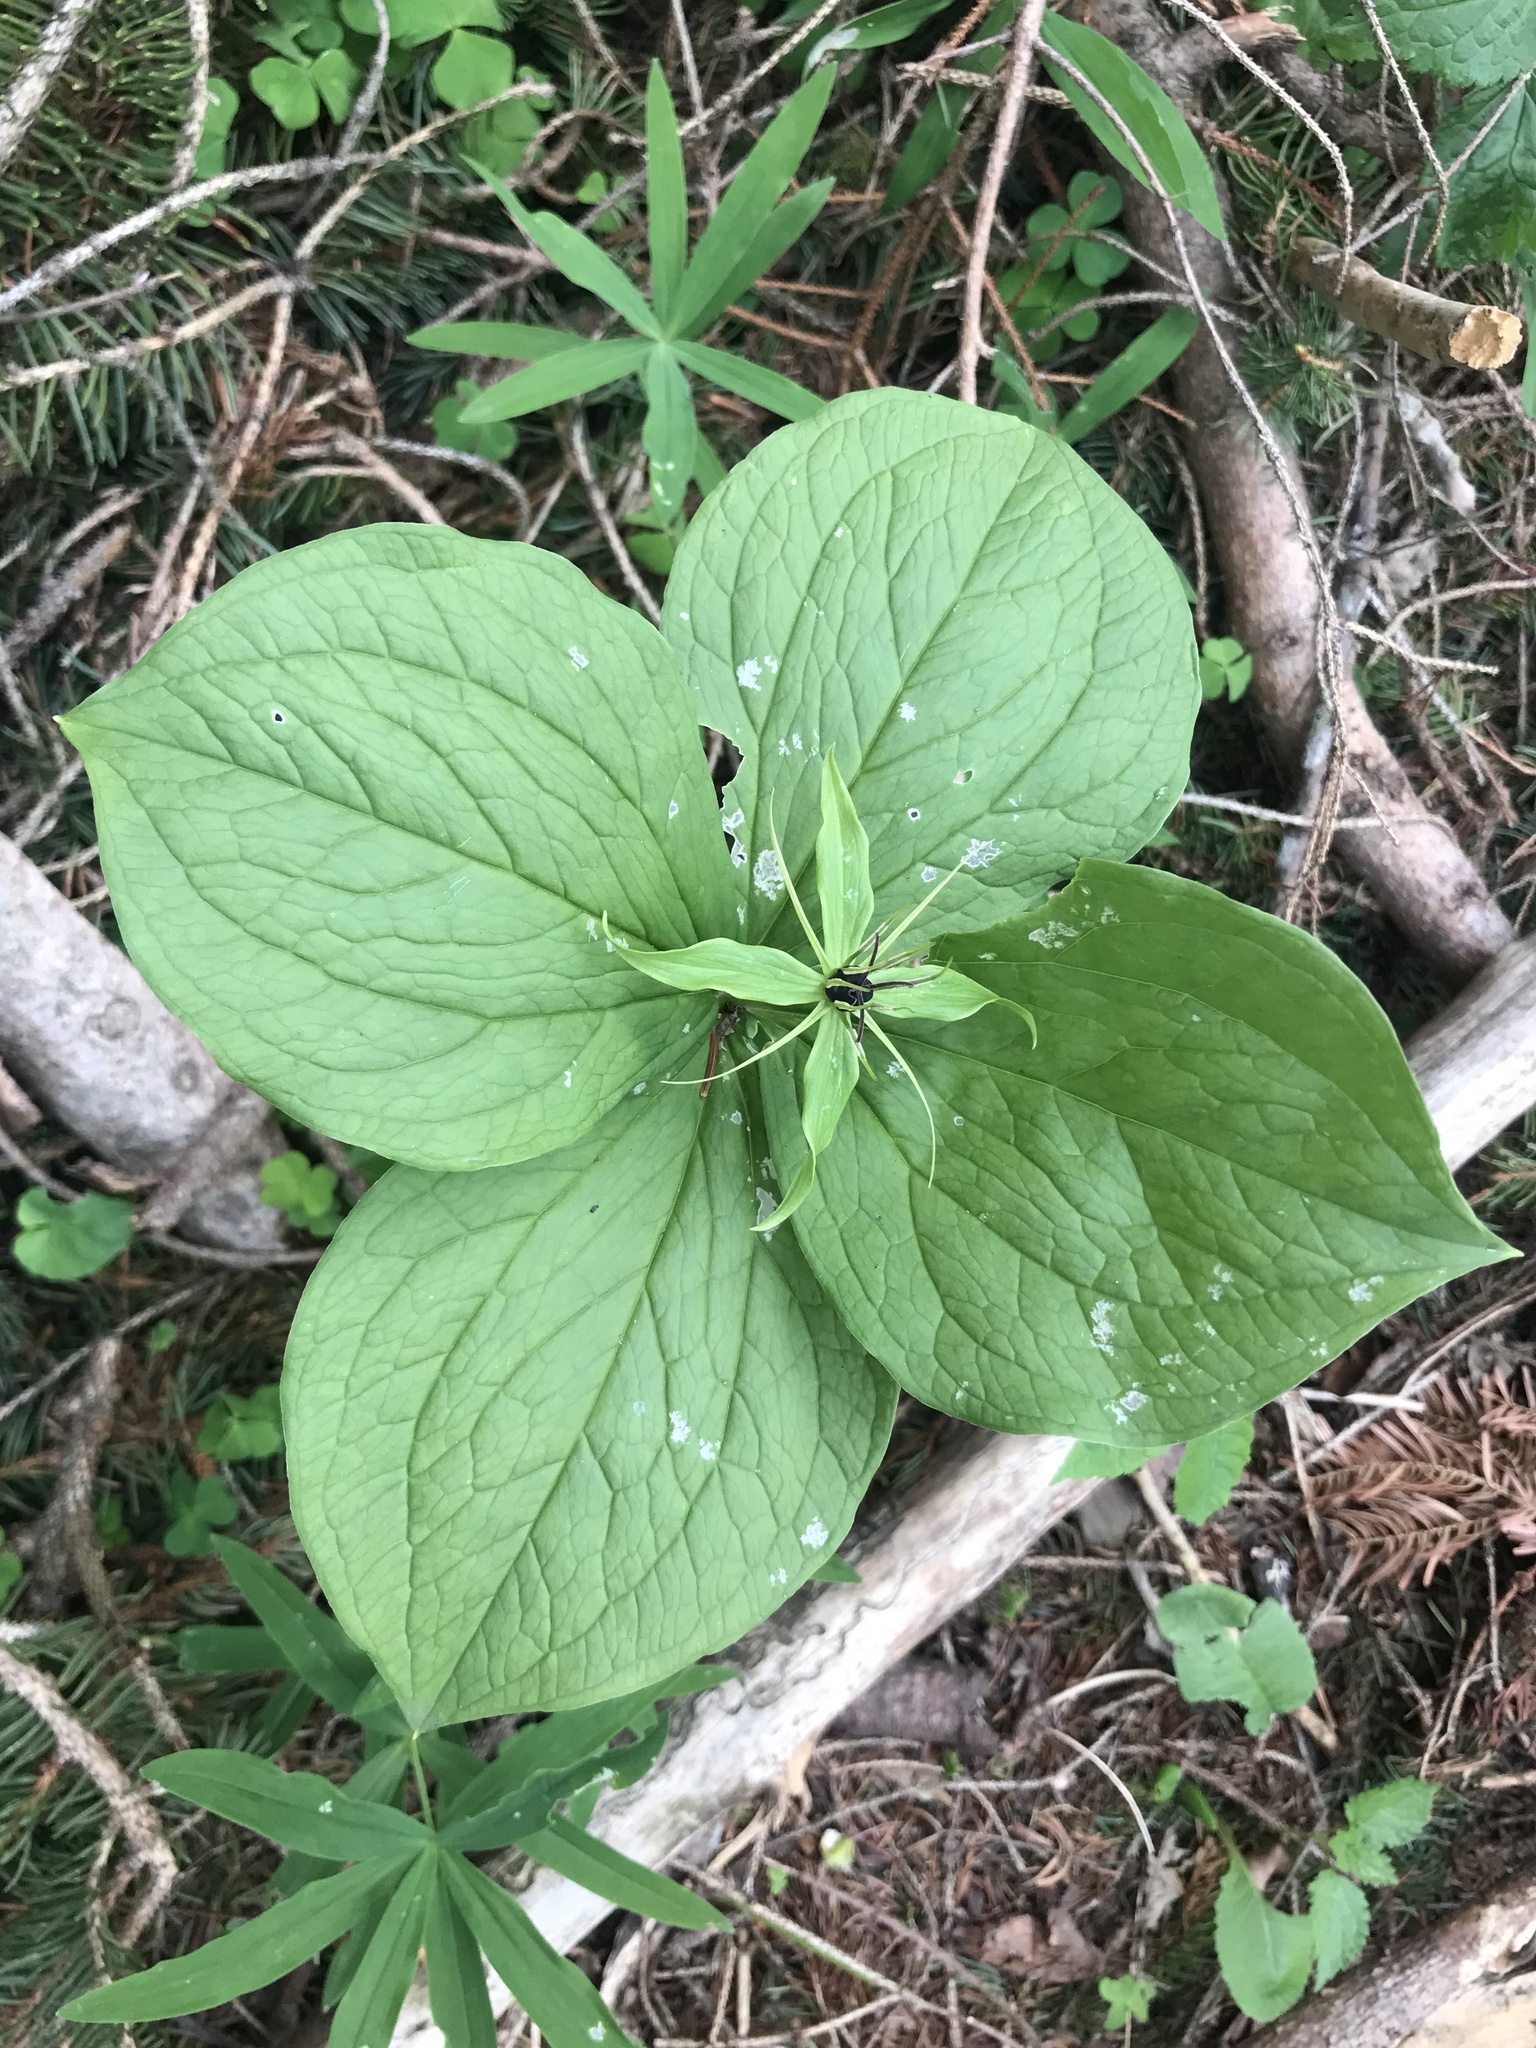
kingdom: Plantae
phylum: Tracheophyta
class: Liliopsida
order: Liliales
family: Melanthiaceae
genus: Paris
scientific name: Paris quadrifolia
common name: Herb-paris
